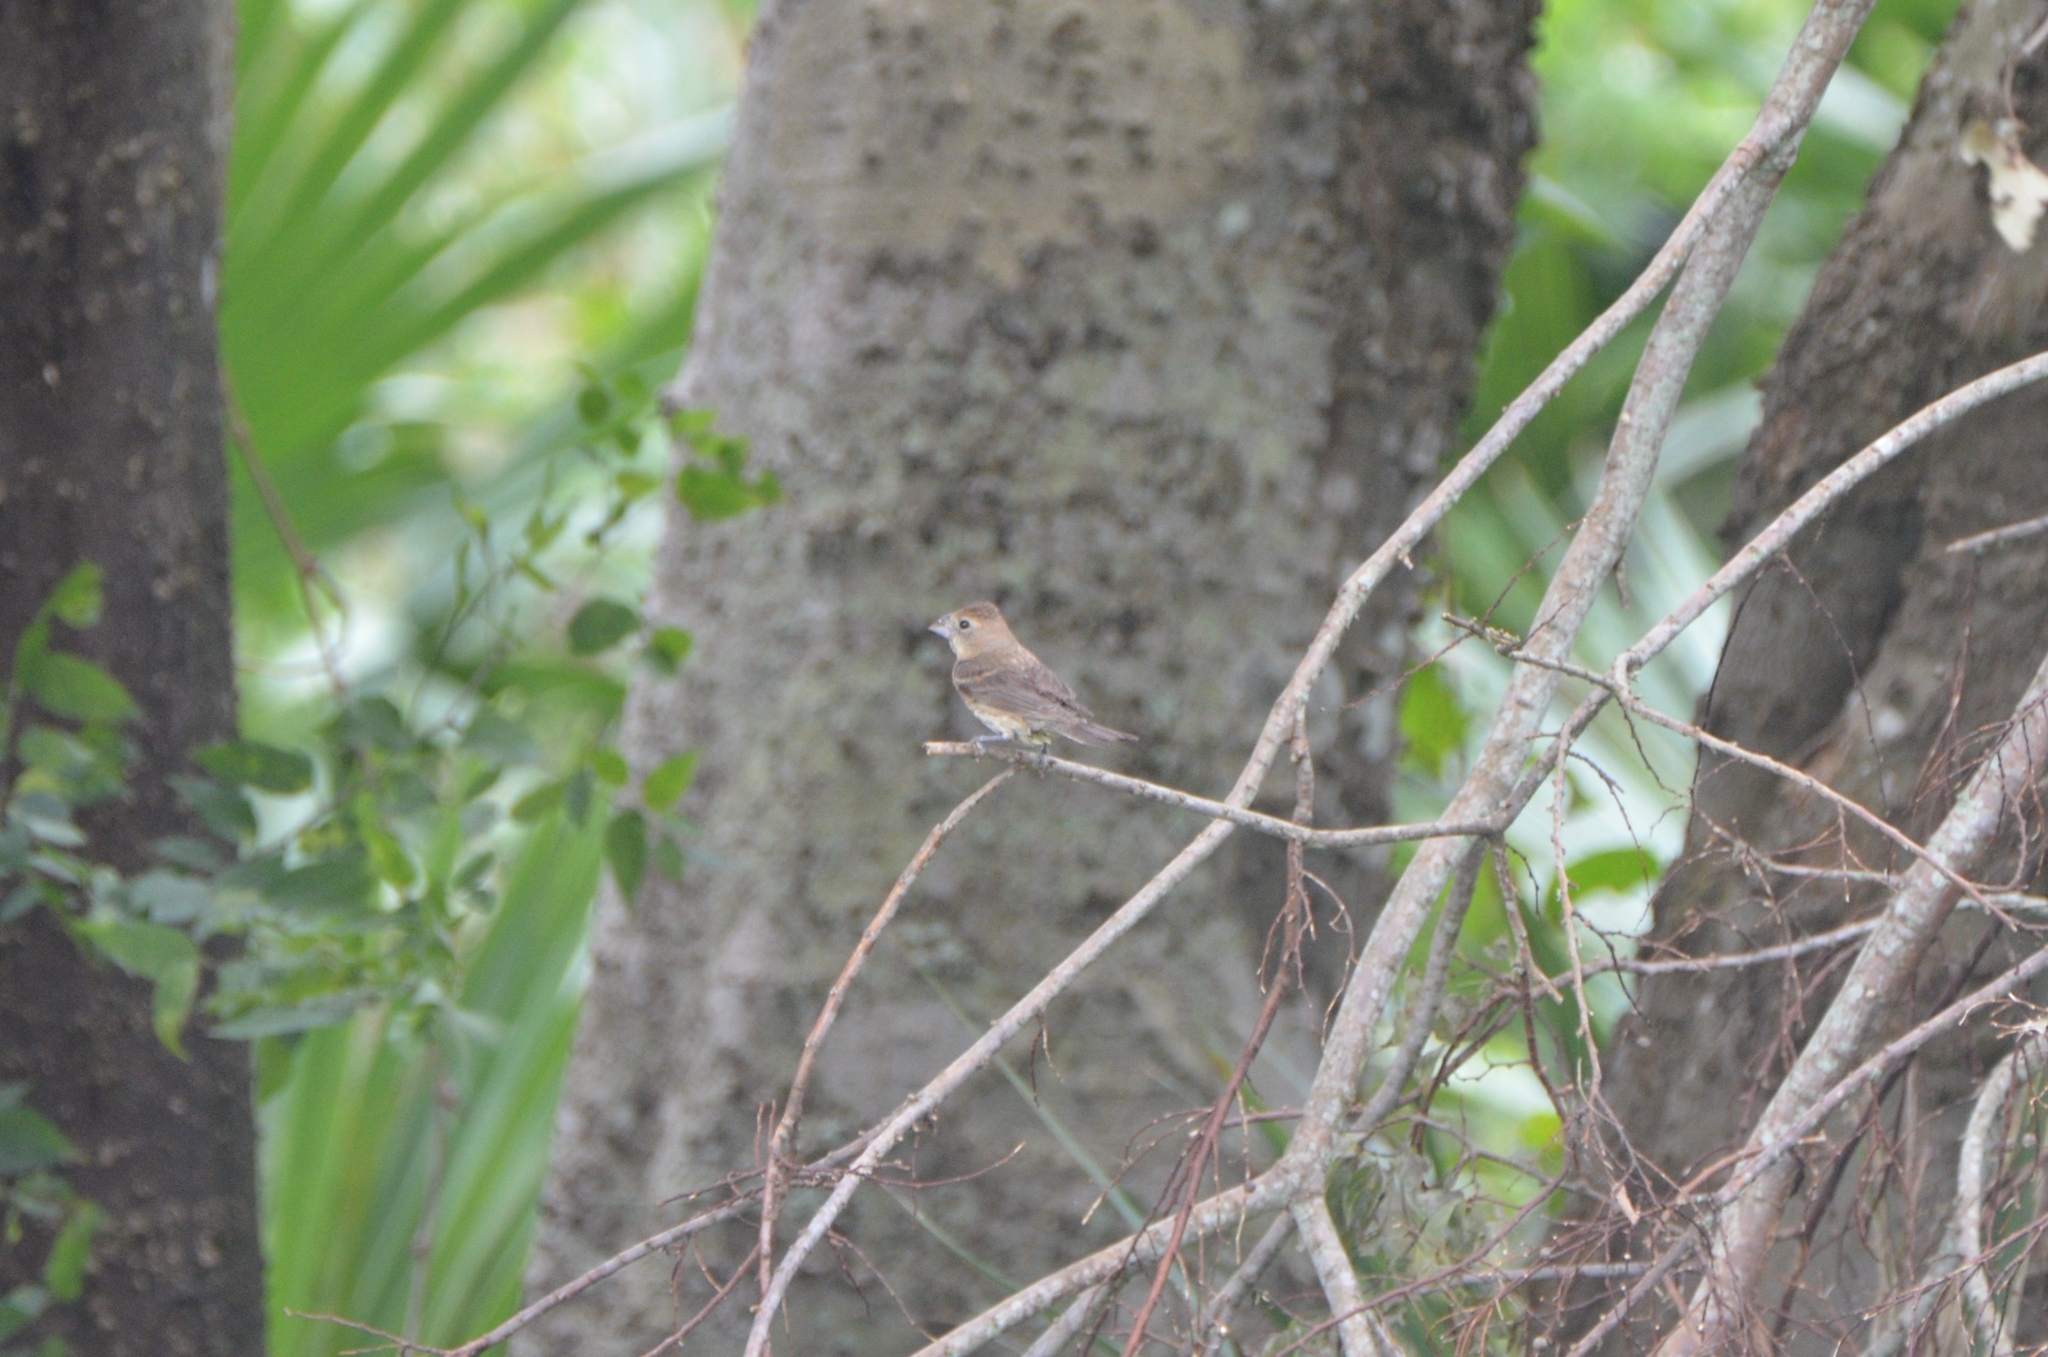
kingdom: Animalia
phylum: Chordata
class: Aves
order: Passeriformes
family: Cardinalidae
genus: Passerina
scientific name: Passerina caerulea
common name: Blue grosbeak
